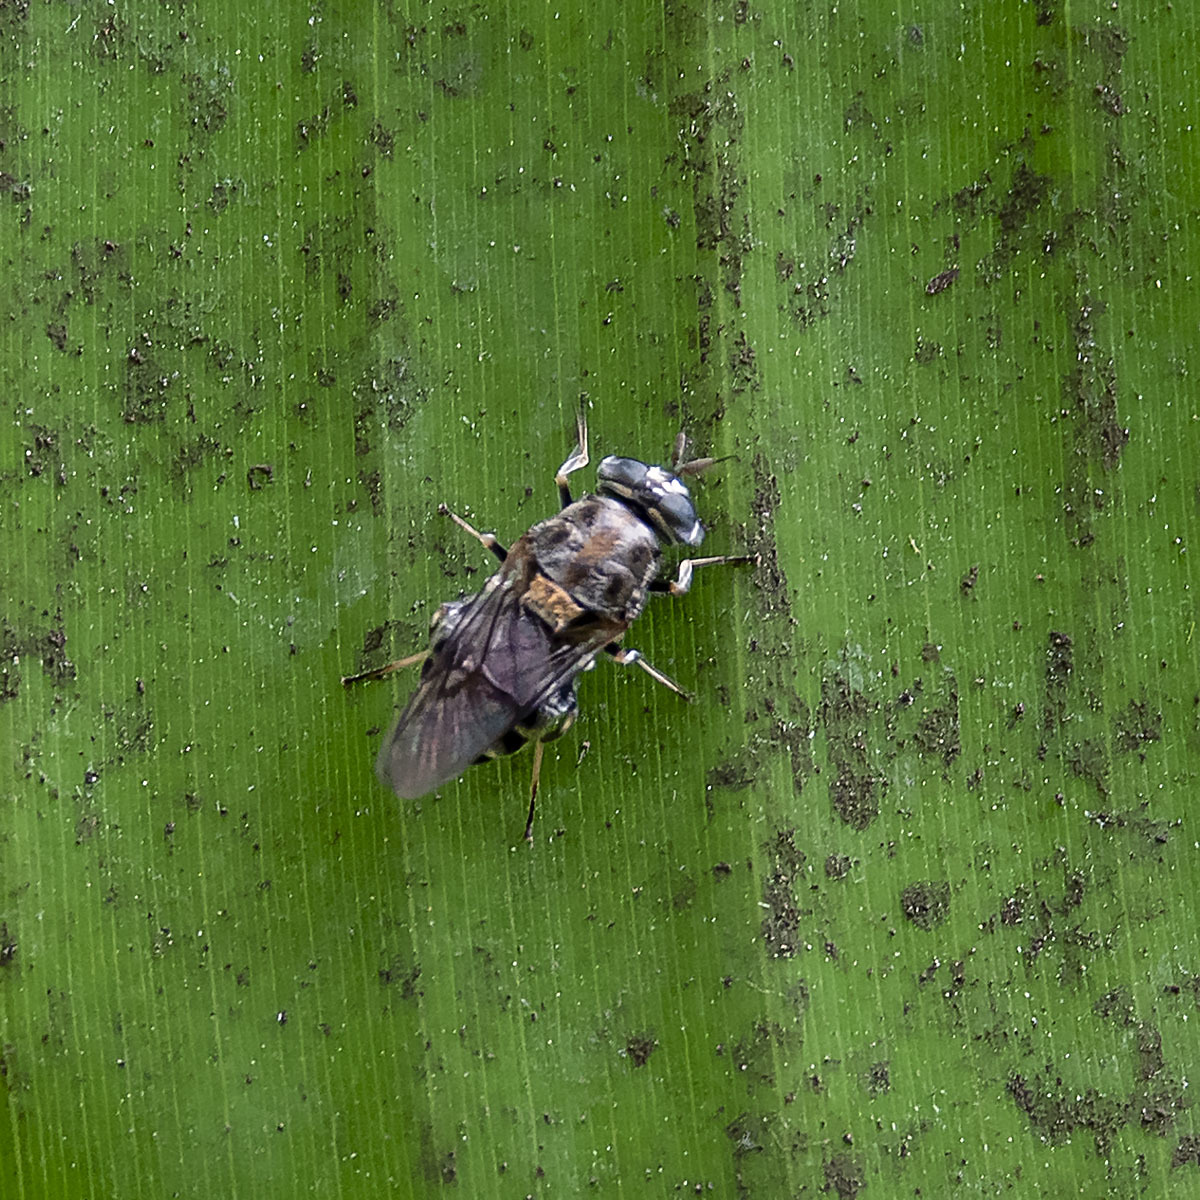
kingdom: Animalia
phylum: Arthropoda
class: Insecta
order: Diptera
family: Stratiomyidae
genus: Adoxomyia
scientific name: Adoxomyia heminopla
